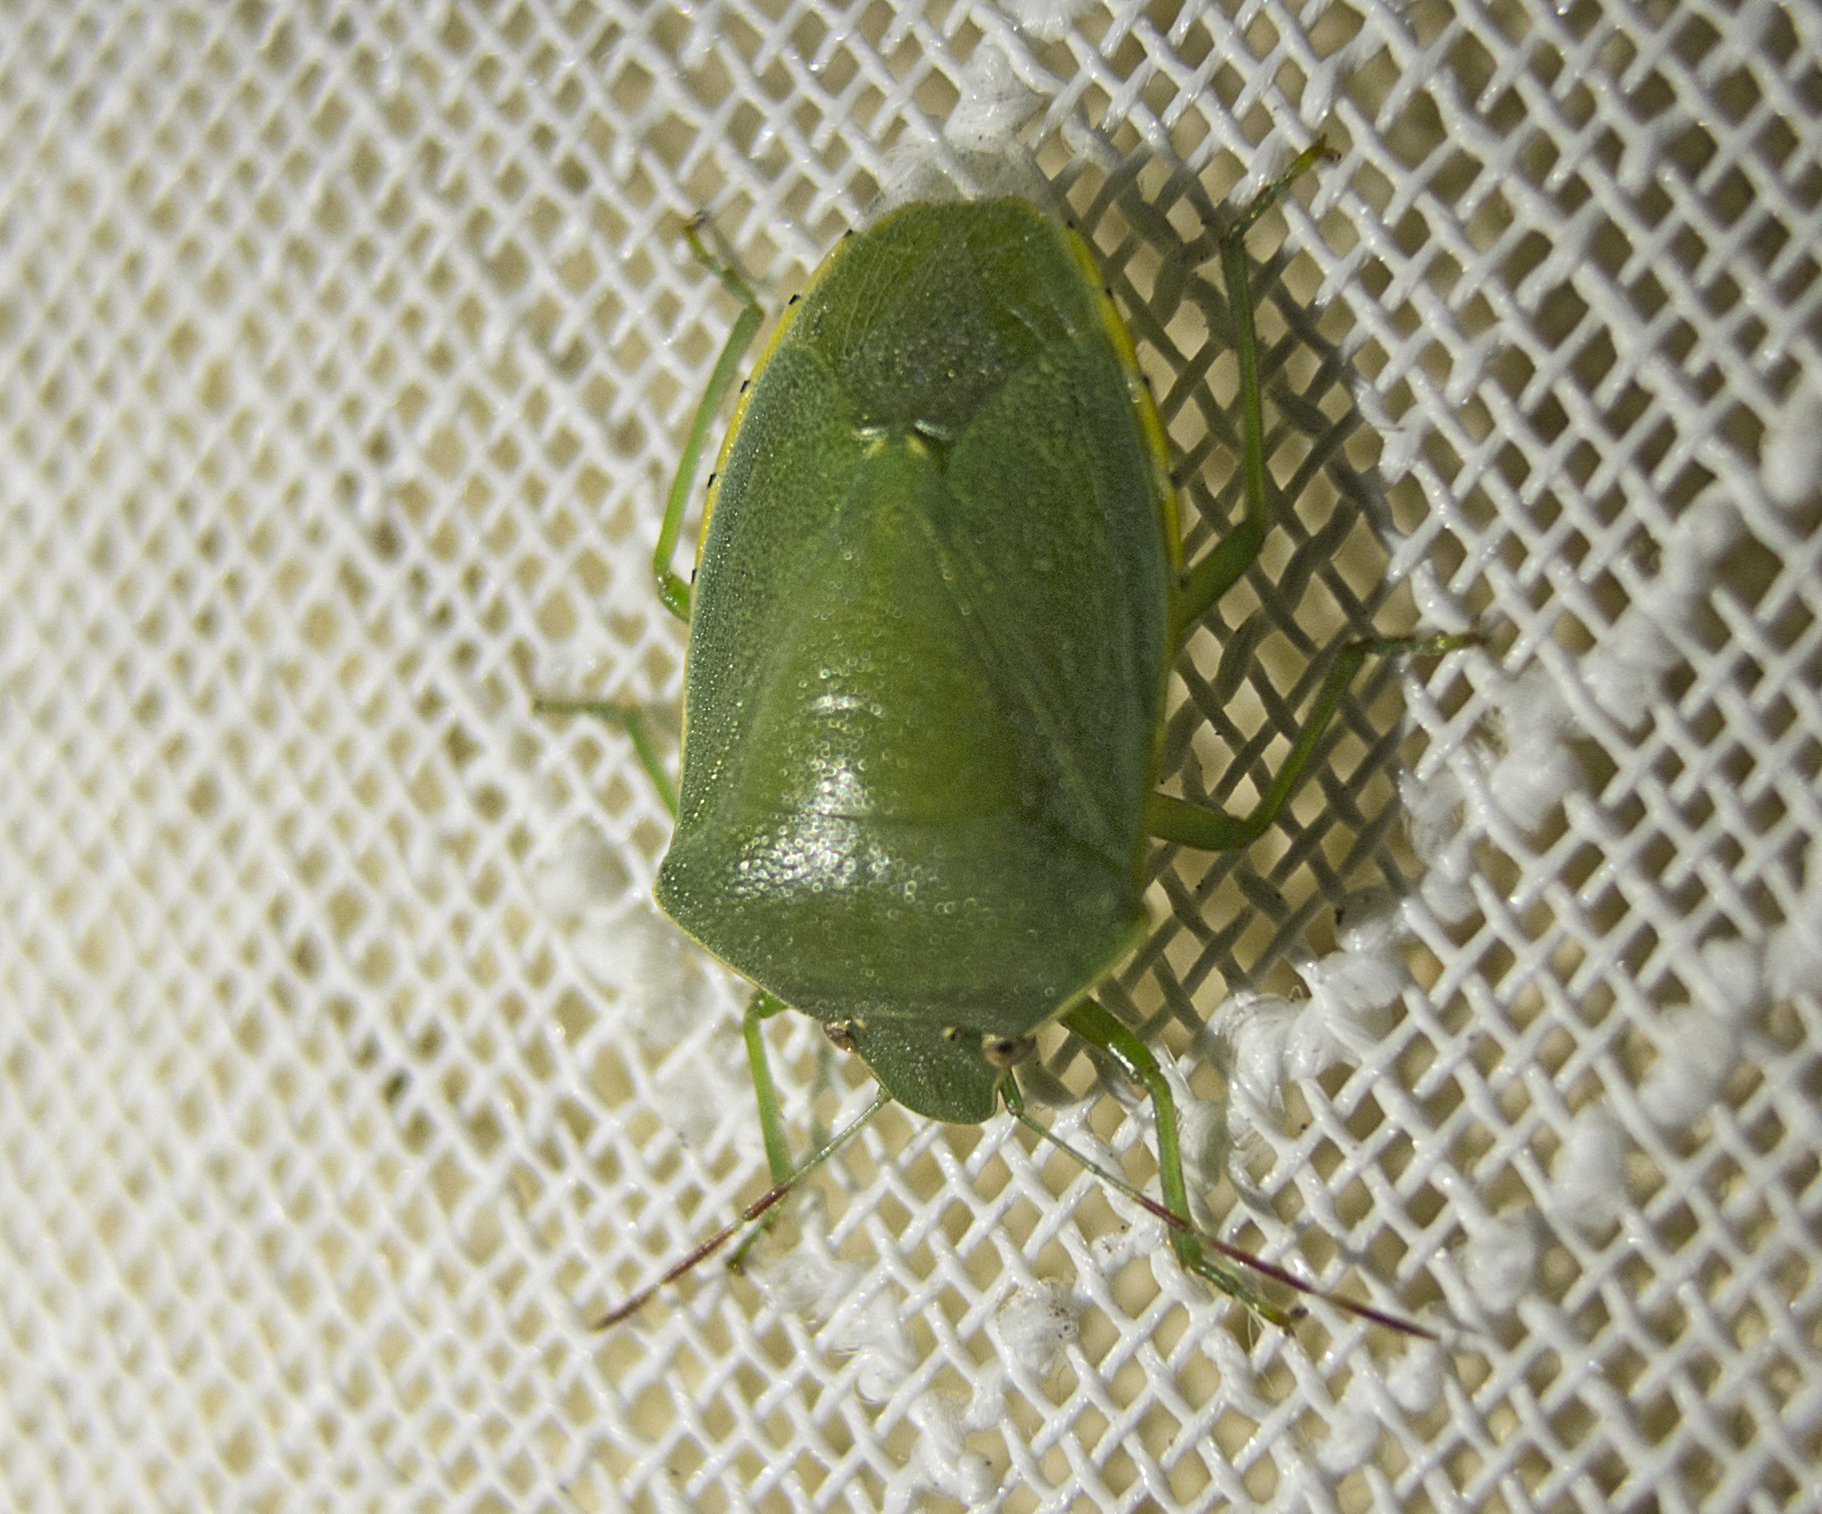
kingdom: Animalia
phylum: Arthropoda
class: Insecta
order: Hemiptera
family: Pentatomidae
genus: Acrosternum
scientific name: Acrosternum heegeri
